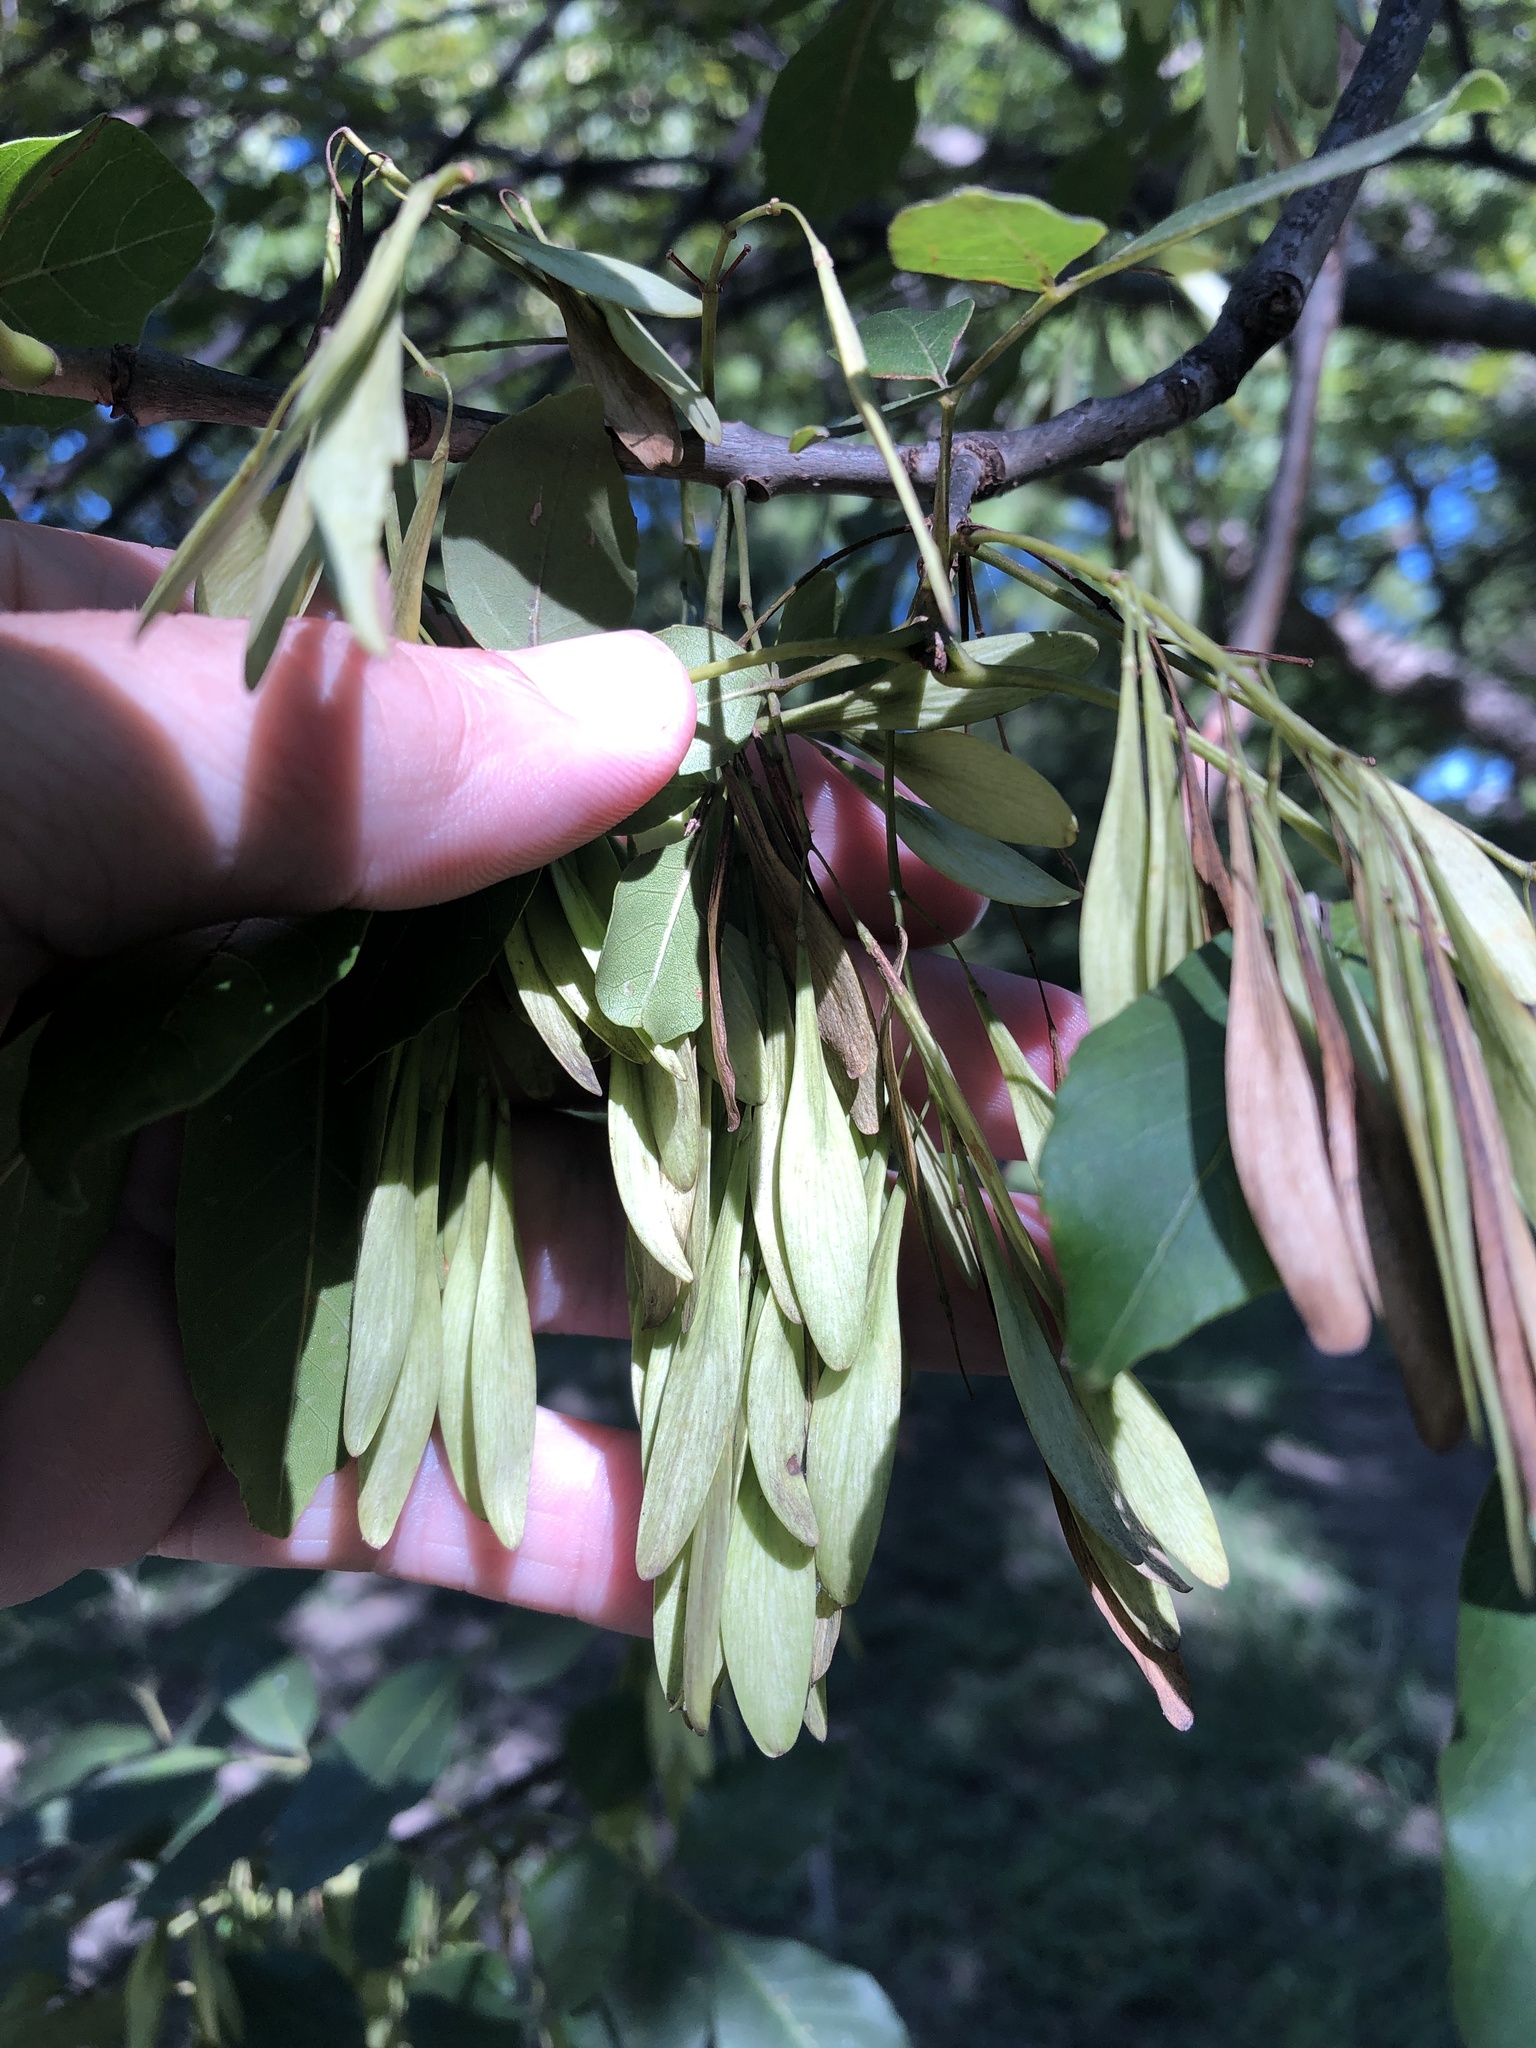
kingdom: Plantae
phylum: Tracheophyta
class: Magnoliopsida
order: Lamiales
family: Oleaceae
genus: Fraxinus
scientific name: Fraxinus pennsylvanica
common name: Green ash
